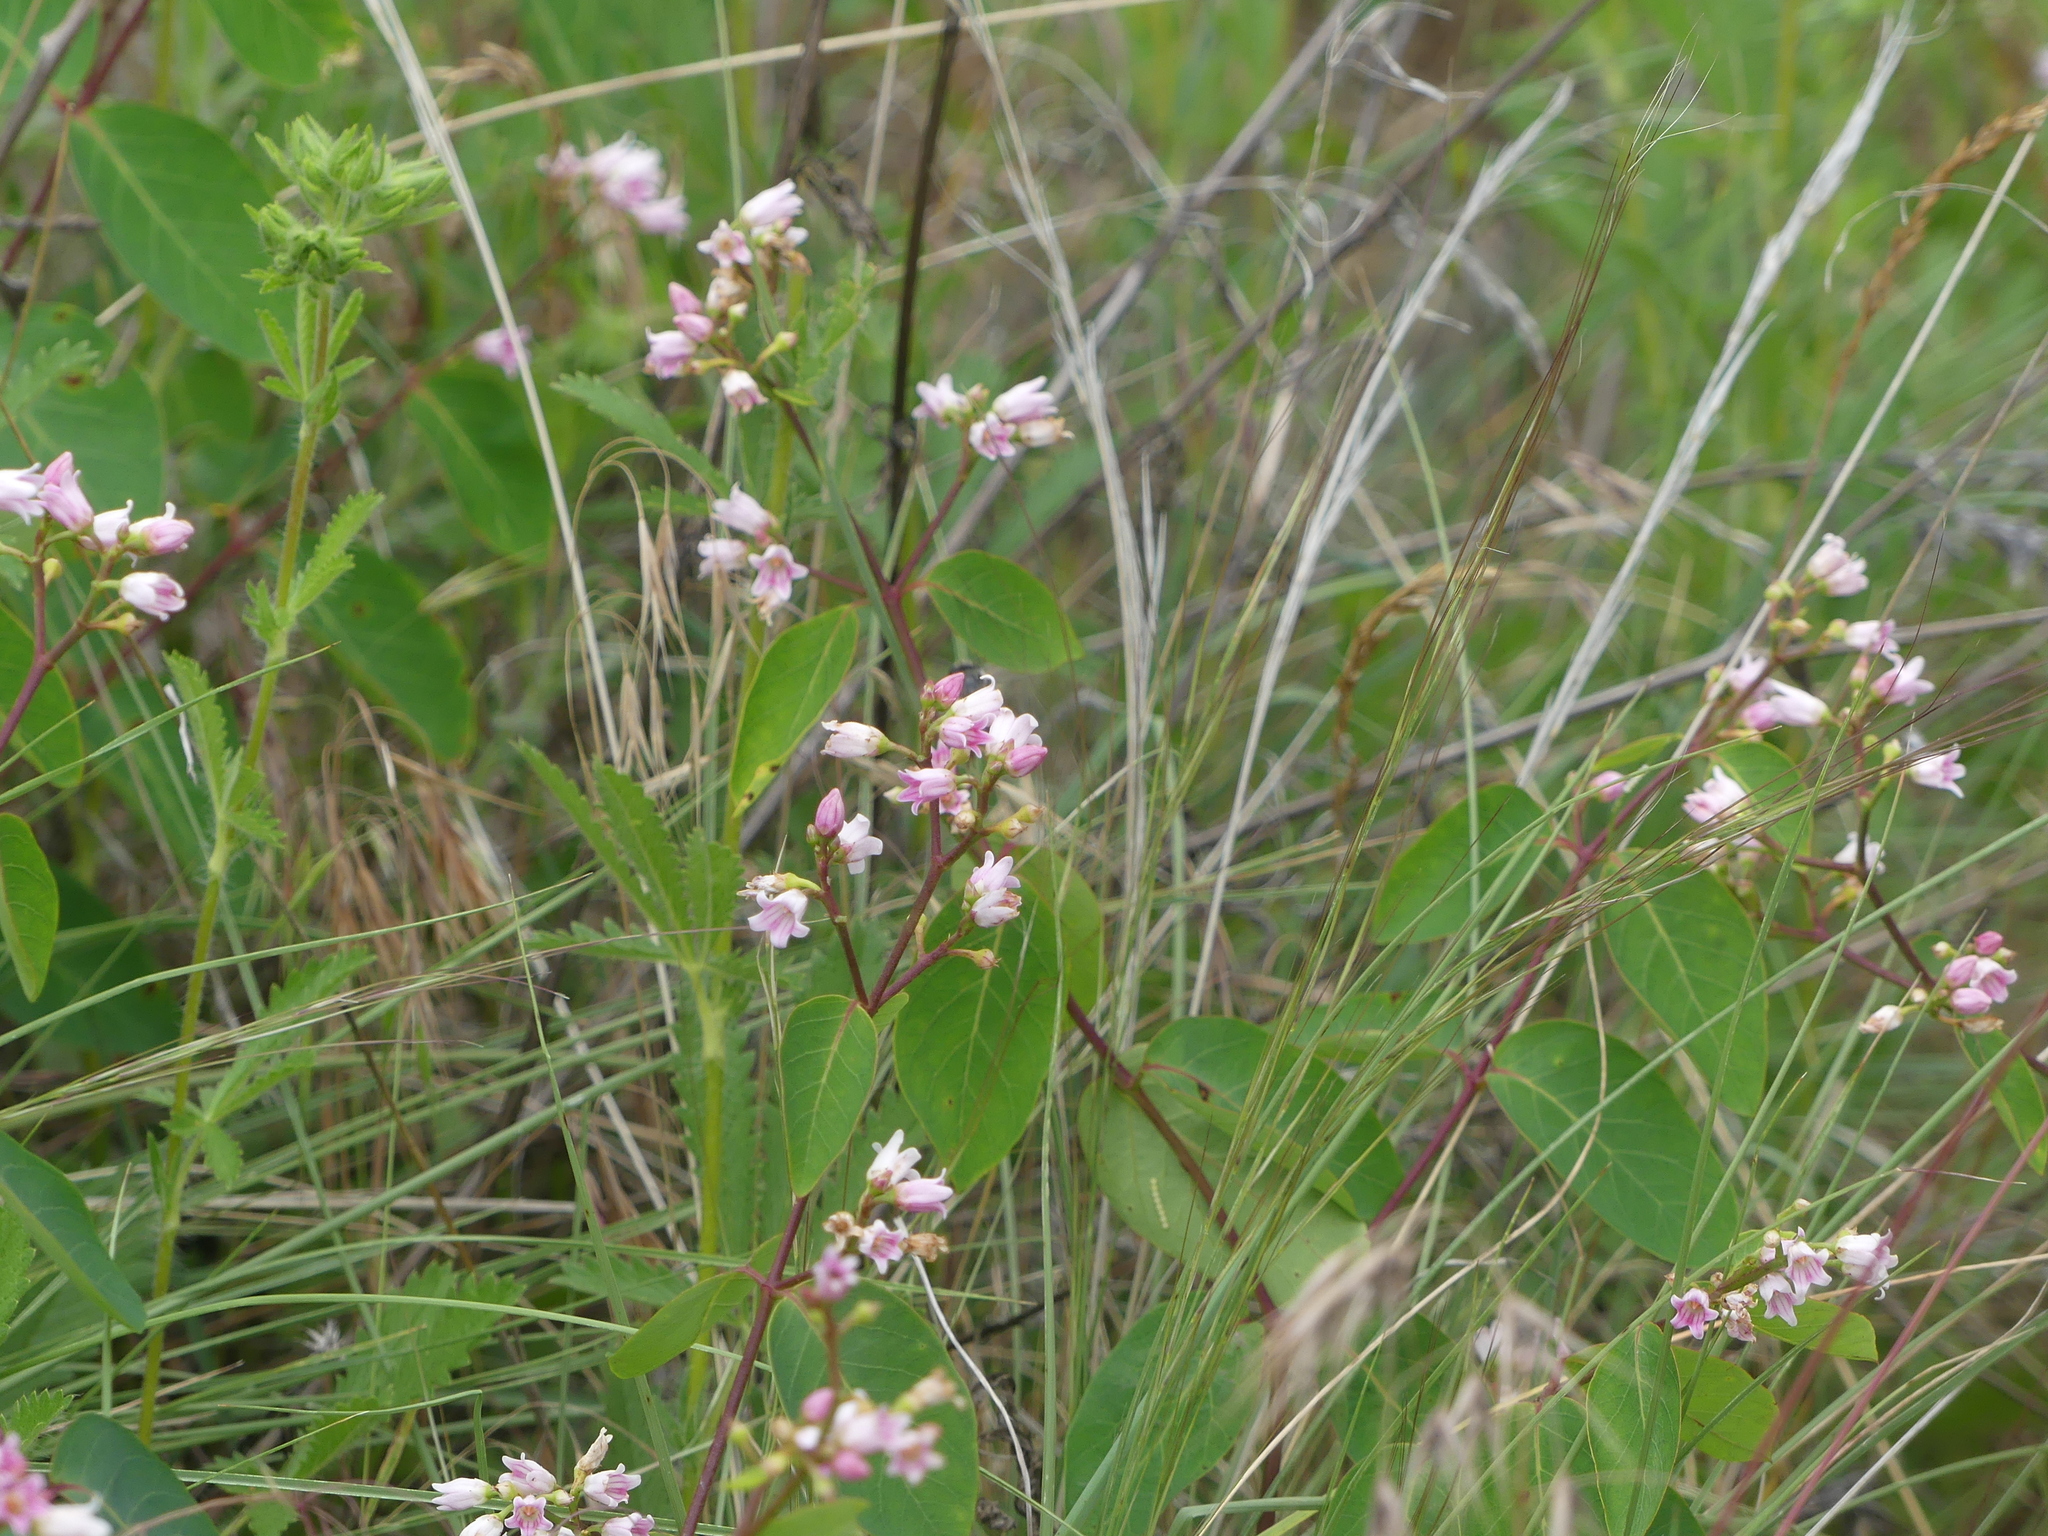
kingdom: Plantae
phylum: Tracheophyta
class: Magnoliopsida
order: Gentianales
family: Apocynaceae
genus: Apocynum
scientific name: Apocynum androsaemifolium
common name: Spreading dogbane
